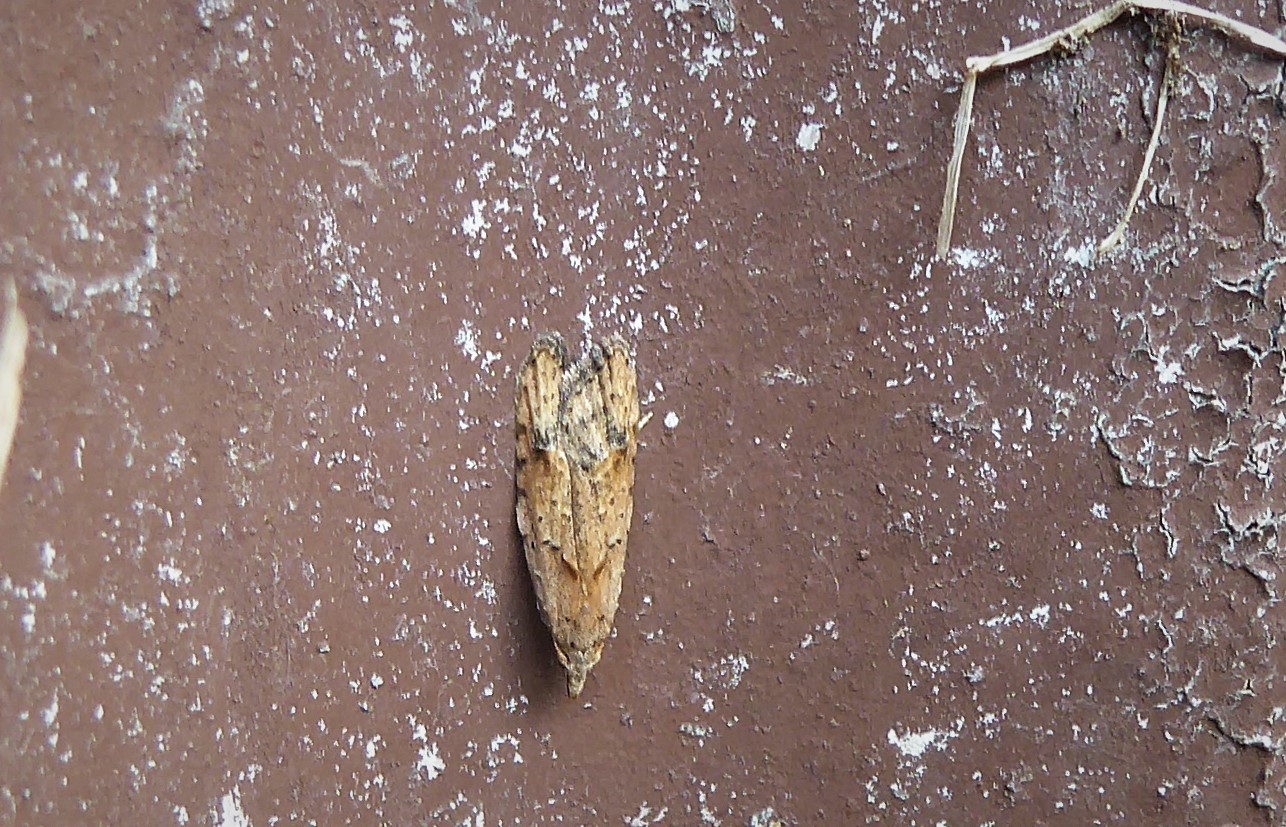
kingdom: Animalia
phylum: Arthropoda
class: Insecta
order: Lepidoptera
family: Carposinidae
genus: Carposina
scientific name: Carposina rubophaga
